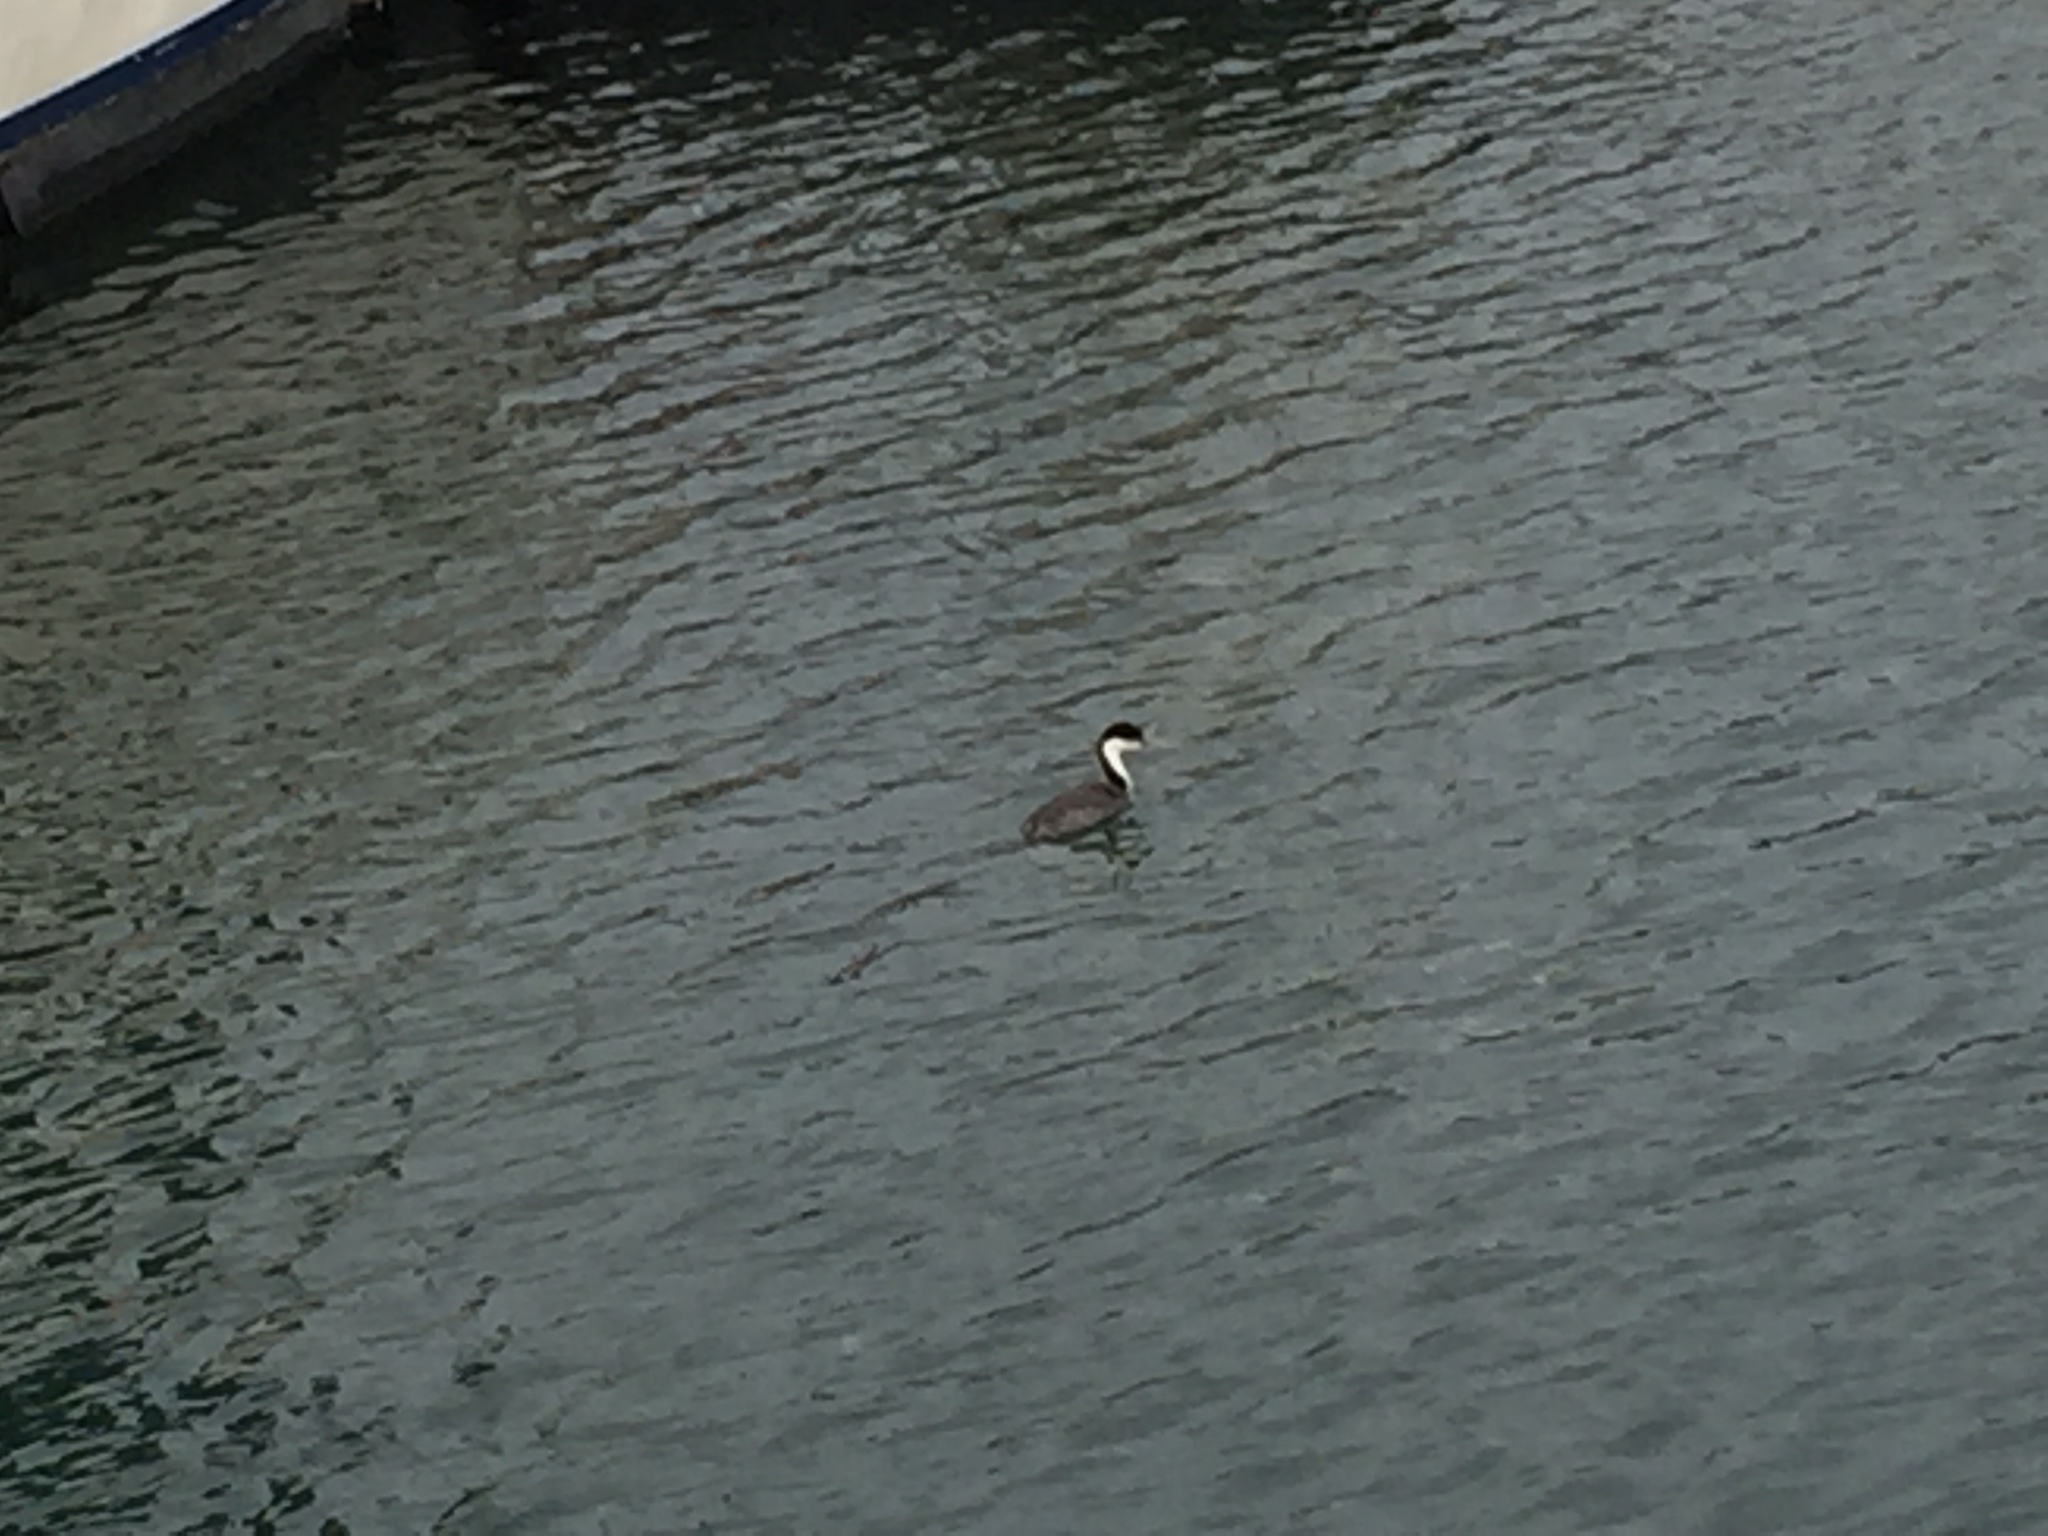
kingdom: Animalia
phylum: Chordata
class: Aves
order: Podicipediformes
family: Podicipedidae
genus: Aechmophorus
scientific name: Aechmophorus occidentalis
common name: Western grebe
